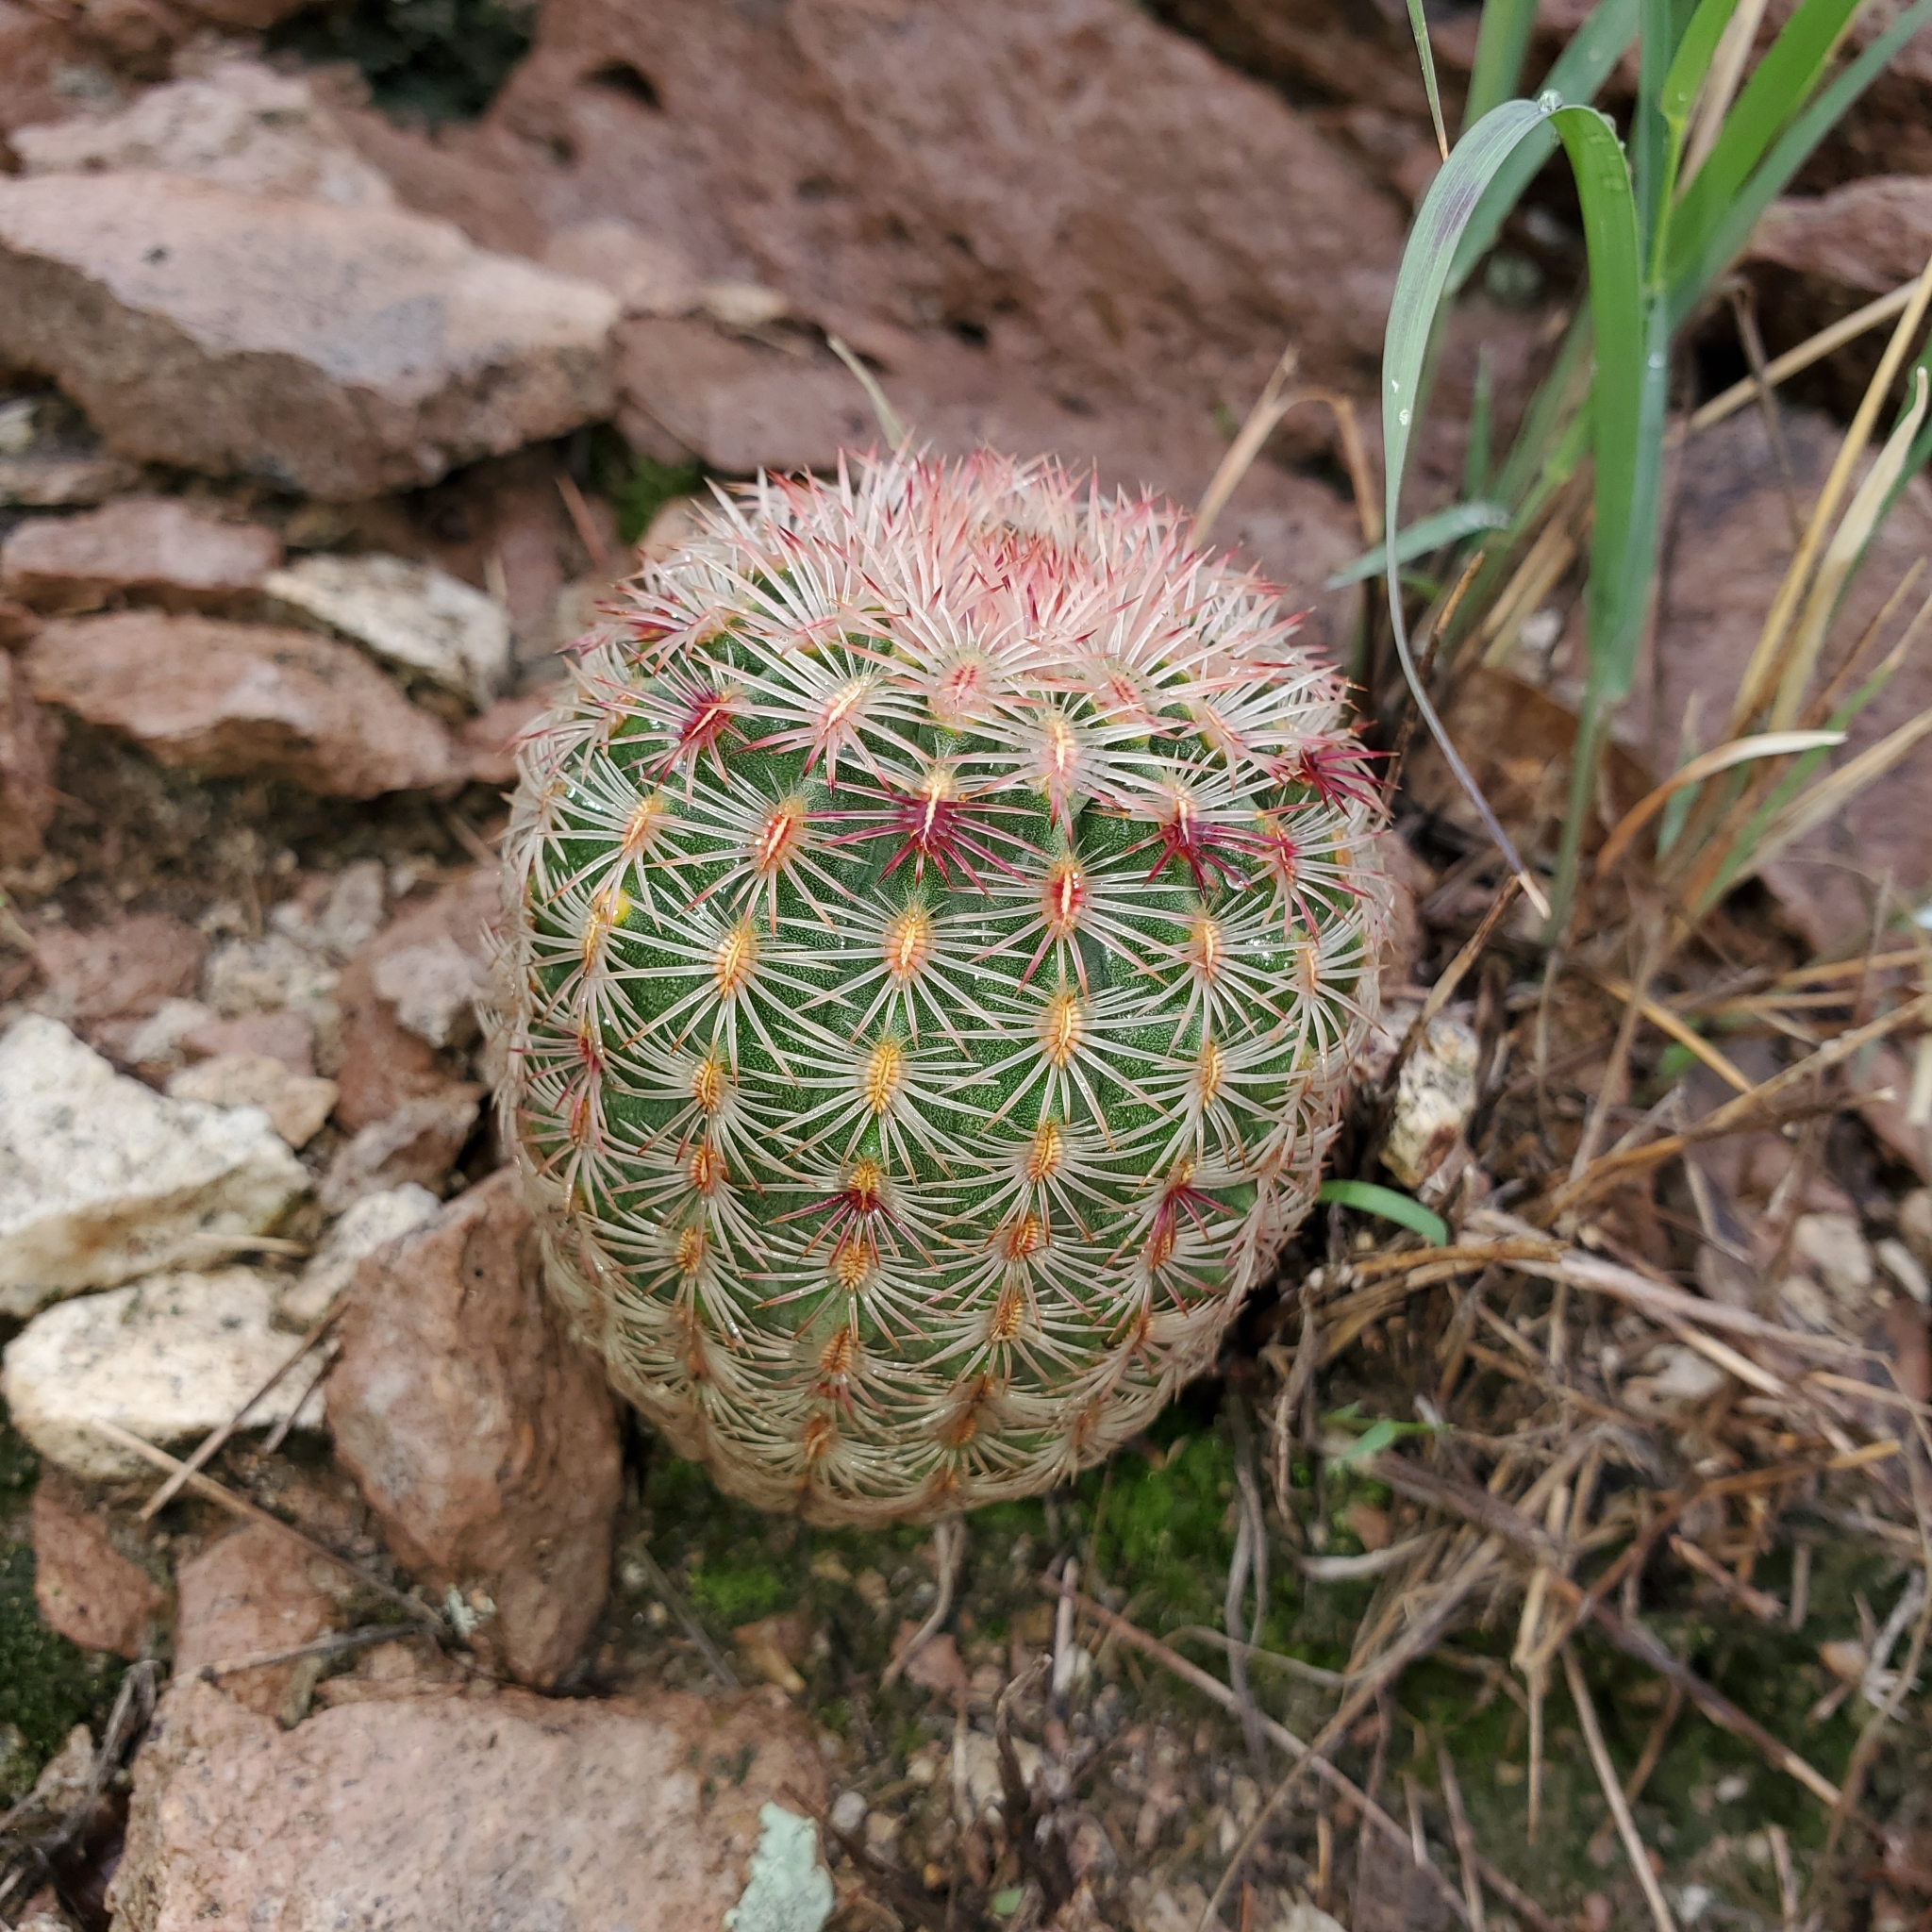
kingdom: Plantae
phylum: Tracheophyta
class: Magnoliopsida
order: Caryophyllales
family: Cactaceae
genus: Echinocereus
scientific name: Echinocereus rigidissimus
